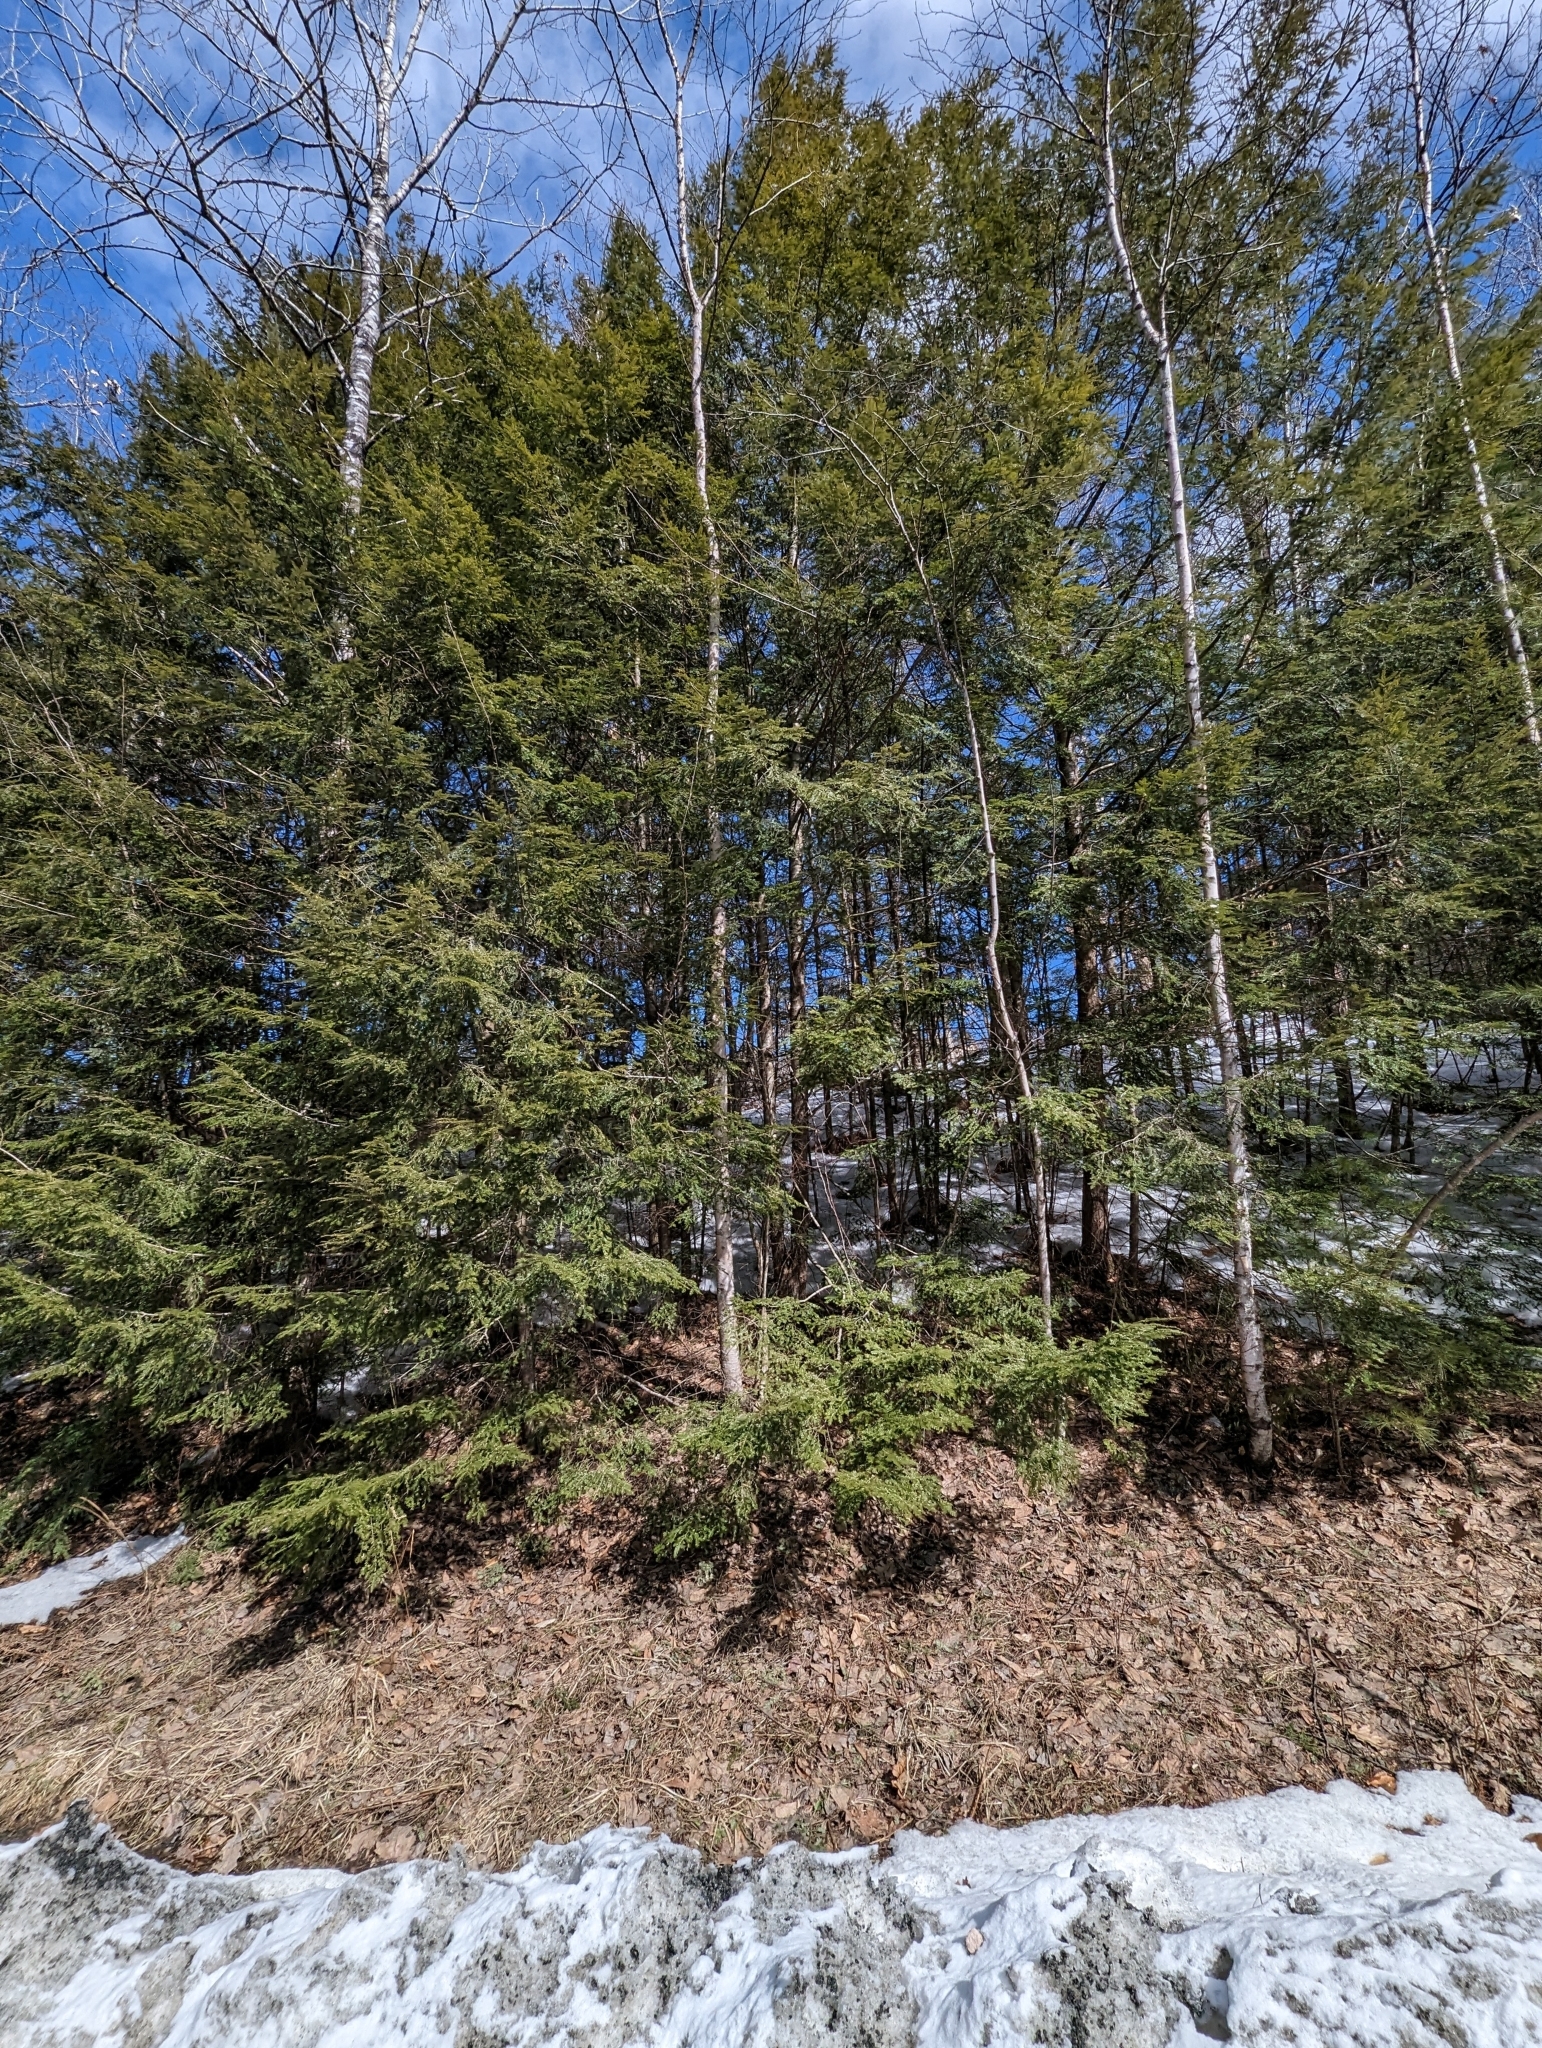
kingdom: Plantae
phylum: Tracheophyta
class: Pinopsida
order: Pinales
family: Pinaceae
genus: Tsuga
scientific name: Tsuga canadensis
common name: Eastern hemlock
